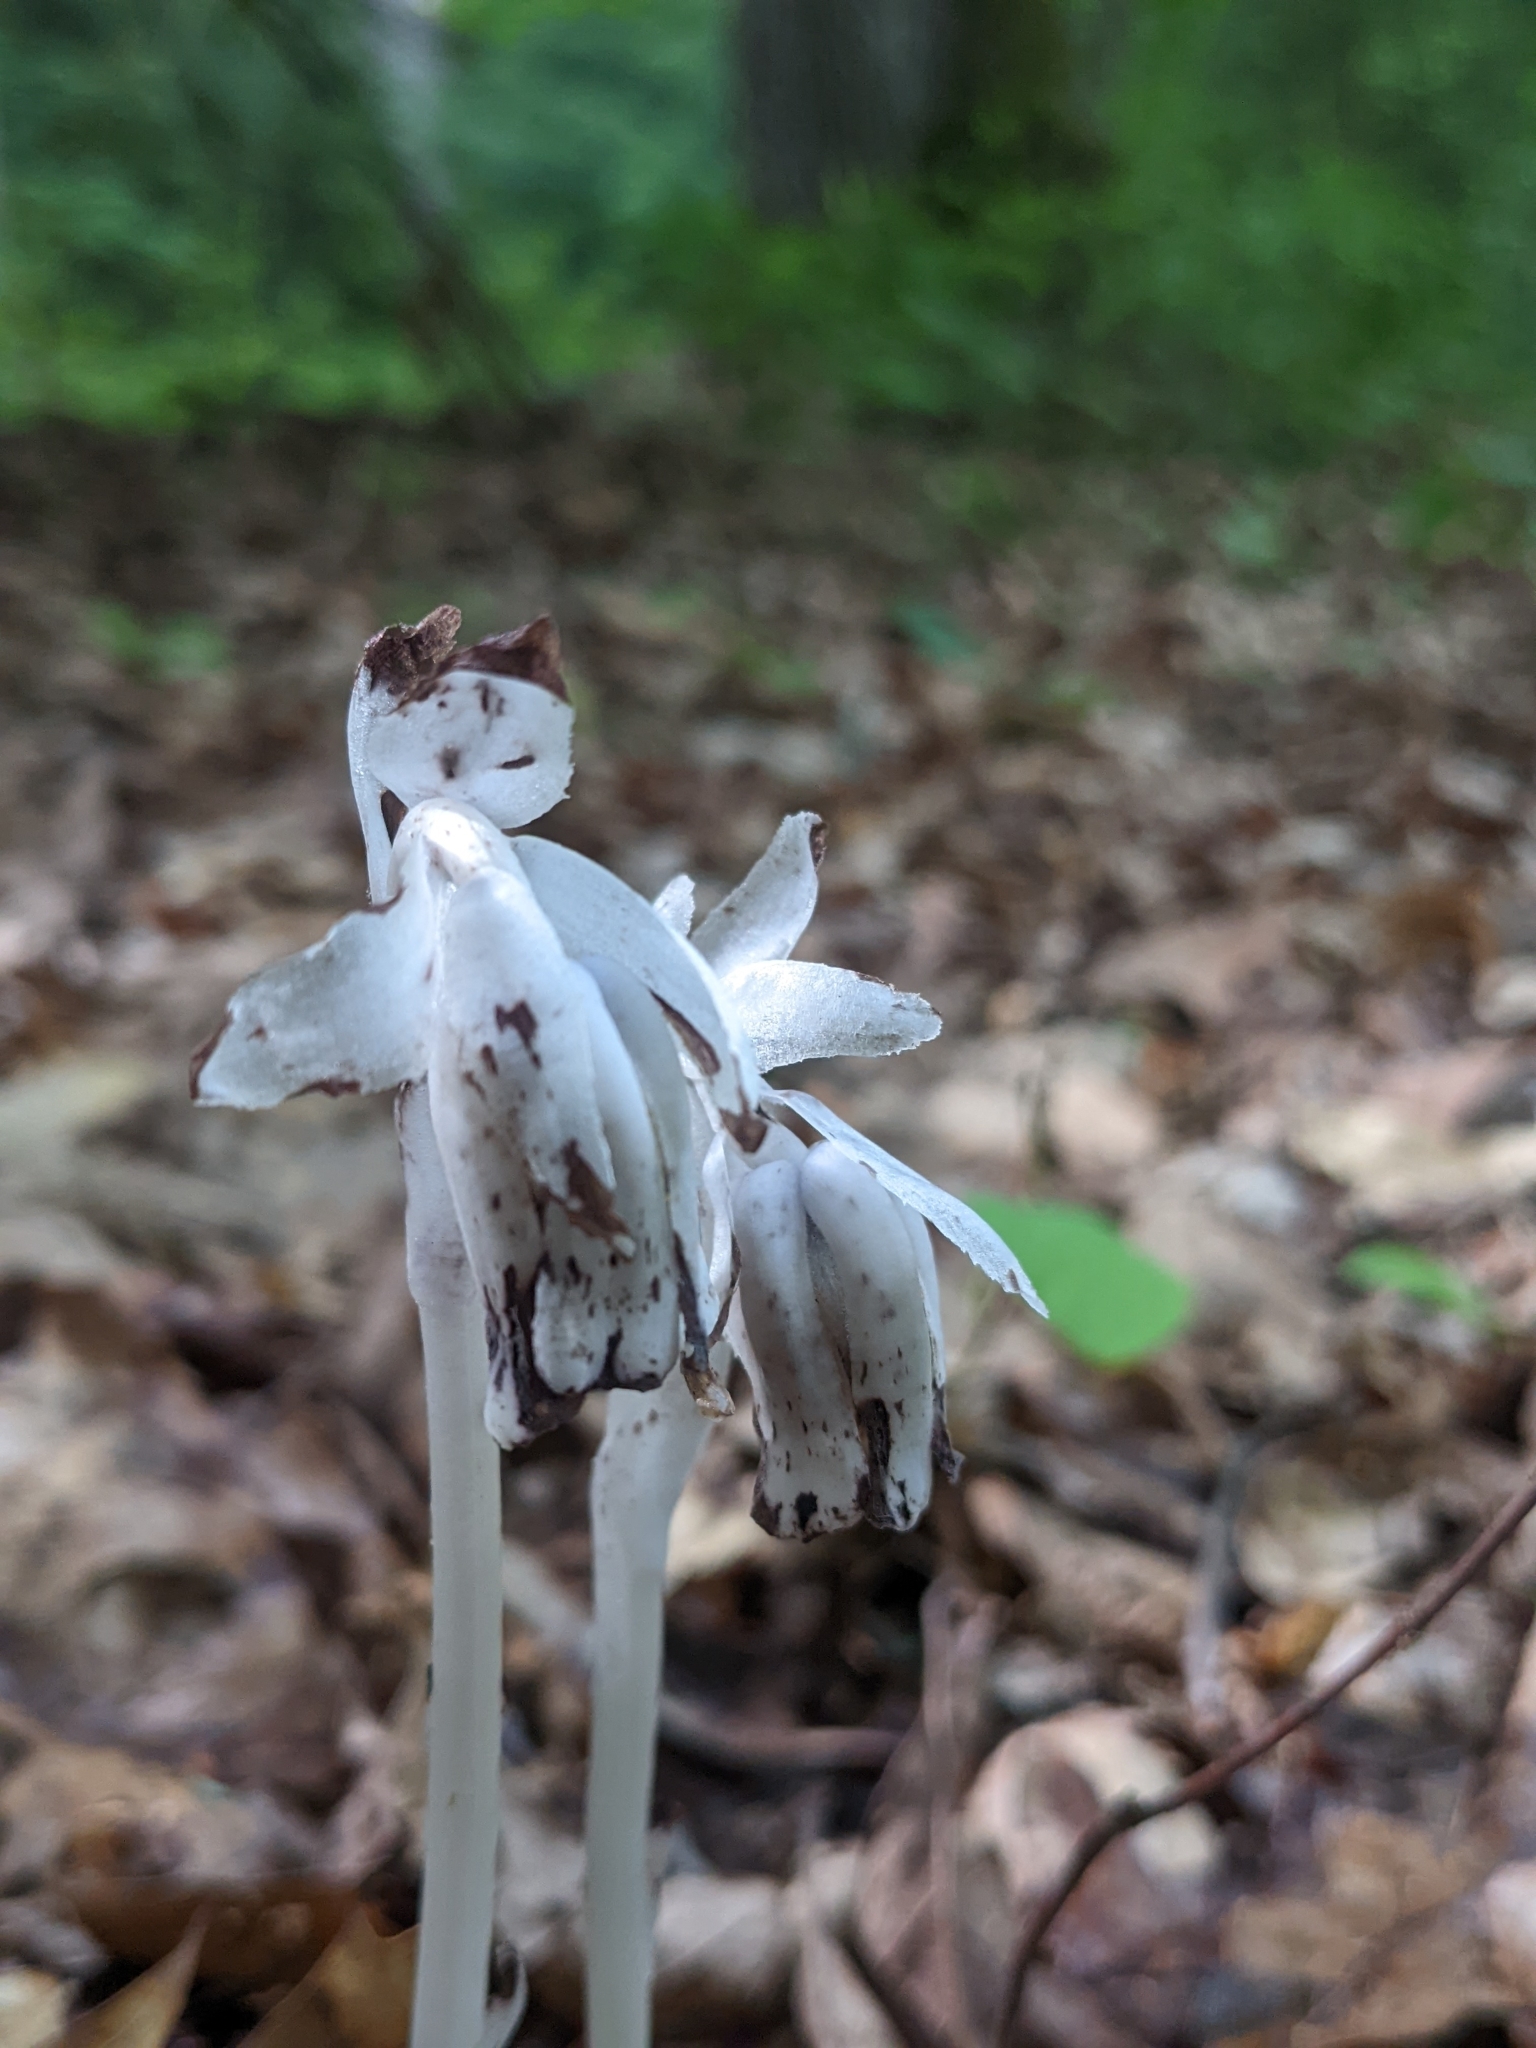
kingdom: Plantae
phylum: Tracheophyta
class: Magnoliopsida
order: Ericales
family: Ericaceae
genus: Monotropa
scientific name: Monotropa uniflora
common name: Convulsion root
